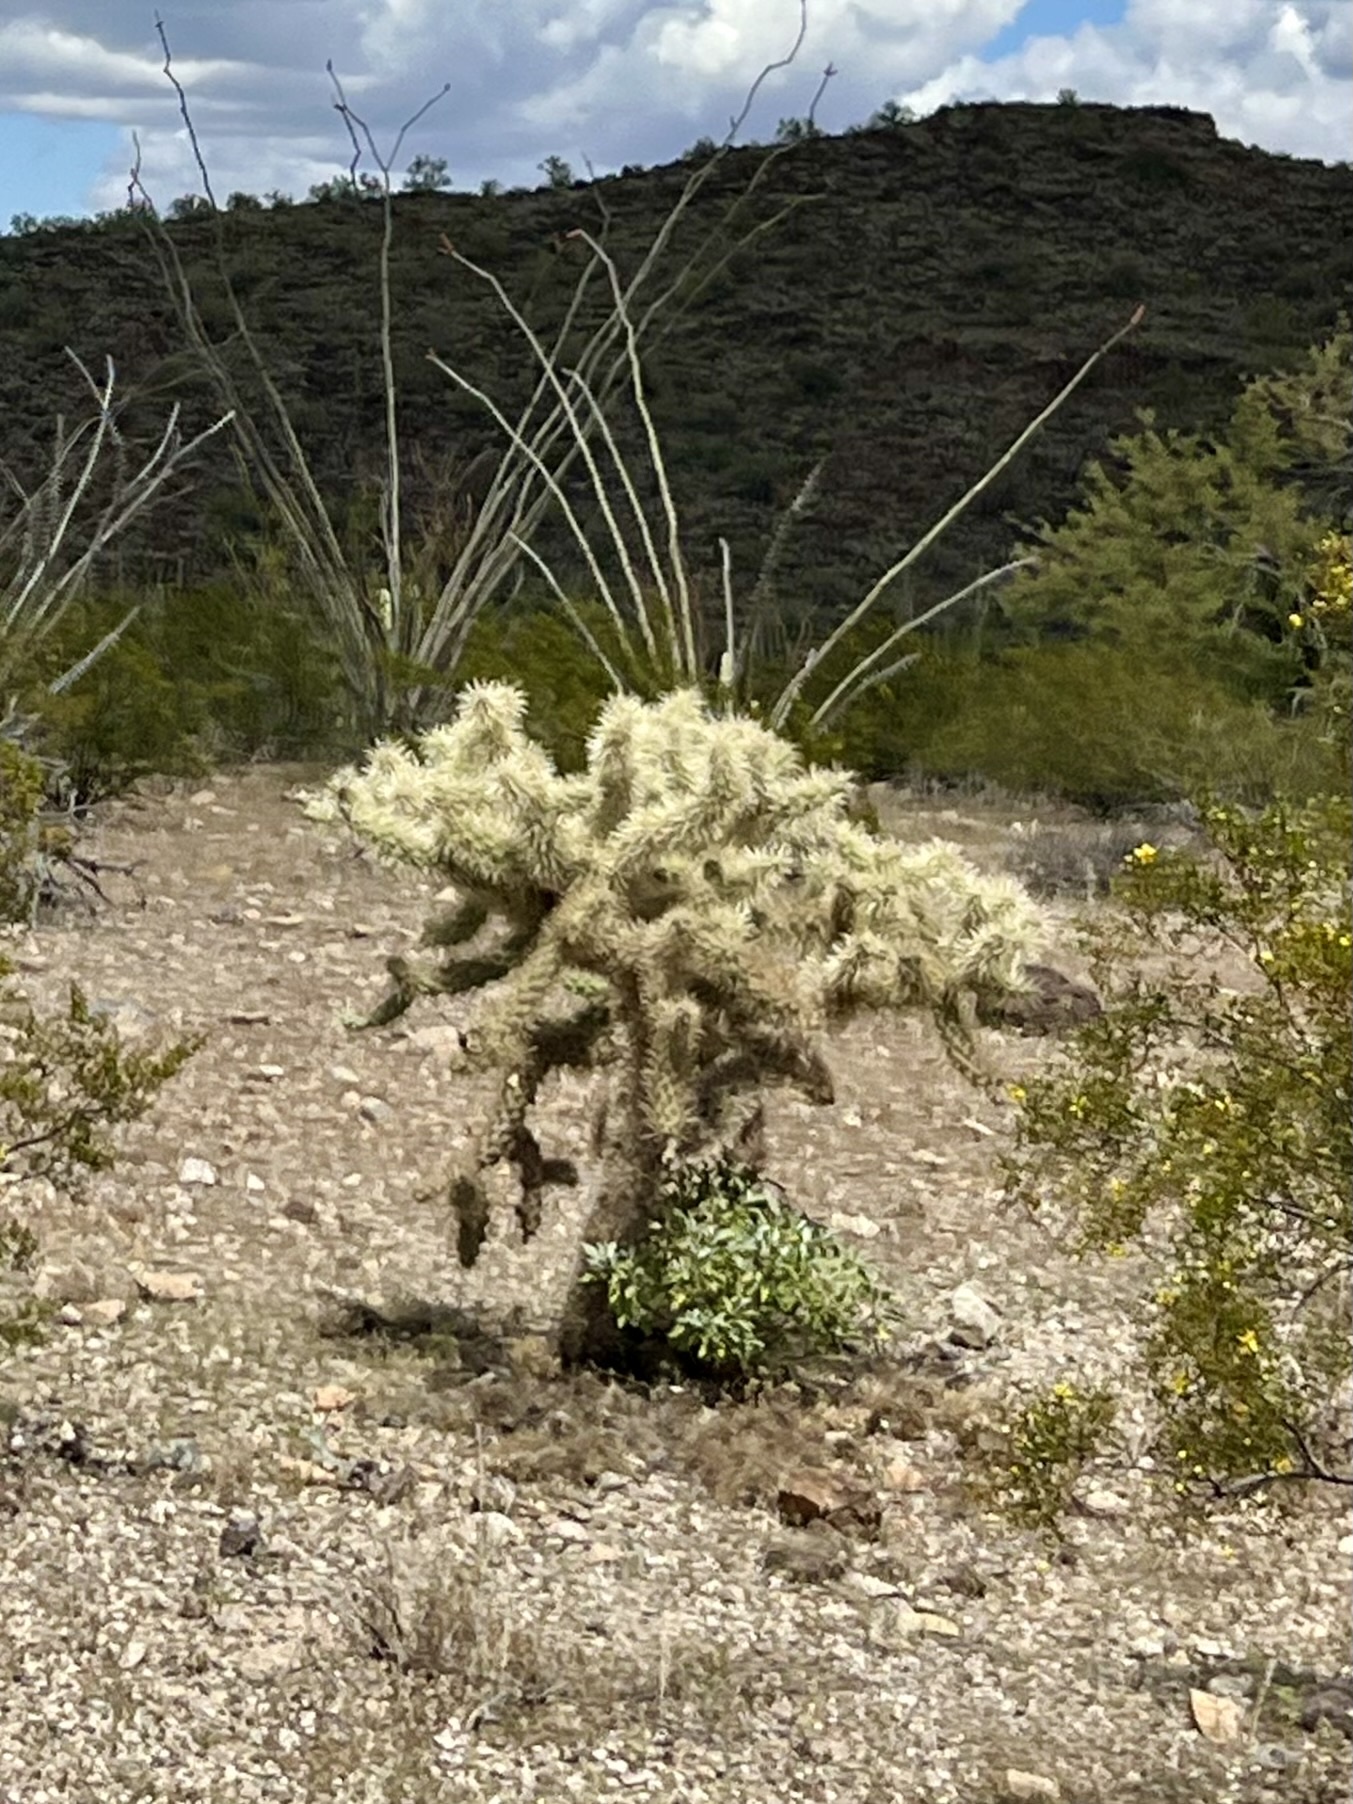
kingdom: Plantae
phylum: Tracheophyta
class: Magnoliopsida
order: Caryophyllales
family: Cactaceae
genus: Cylindropuntia
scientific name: Cylindropuntia fulgida
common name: Jumping cholla
